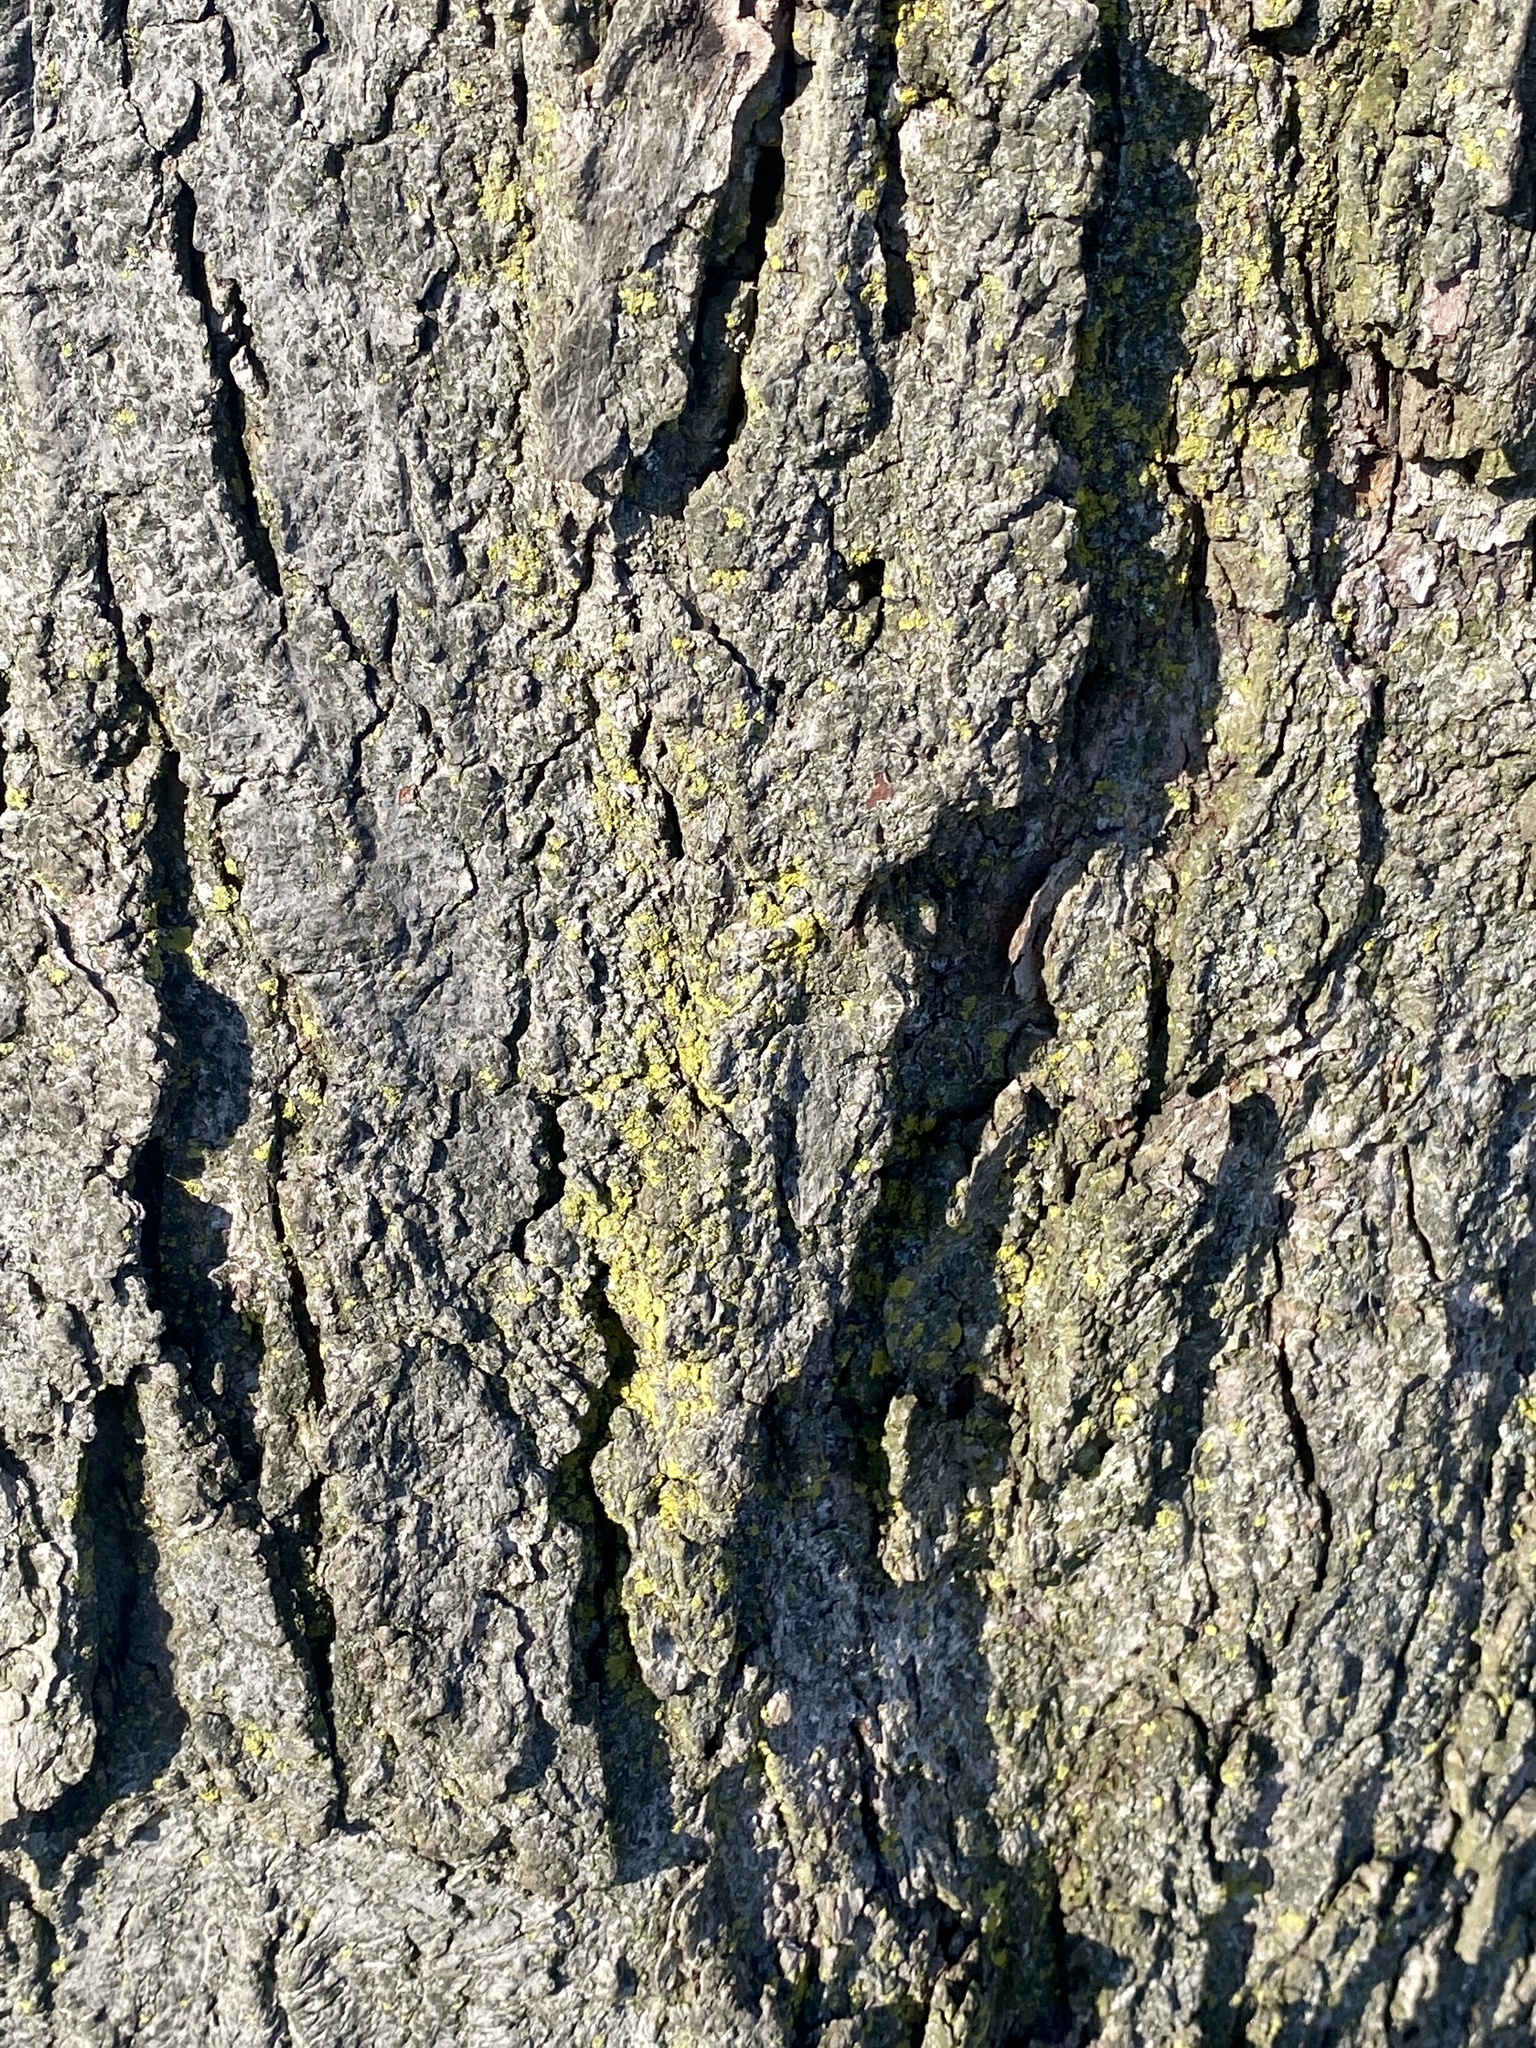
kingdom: Fungi
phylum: Ascomycota
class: Candelariomycetes
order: Candelariales
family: Candelariaceae
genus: Candelaria
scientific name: Candelaria concolor
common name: Candleflame lichen
